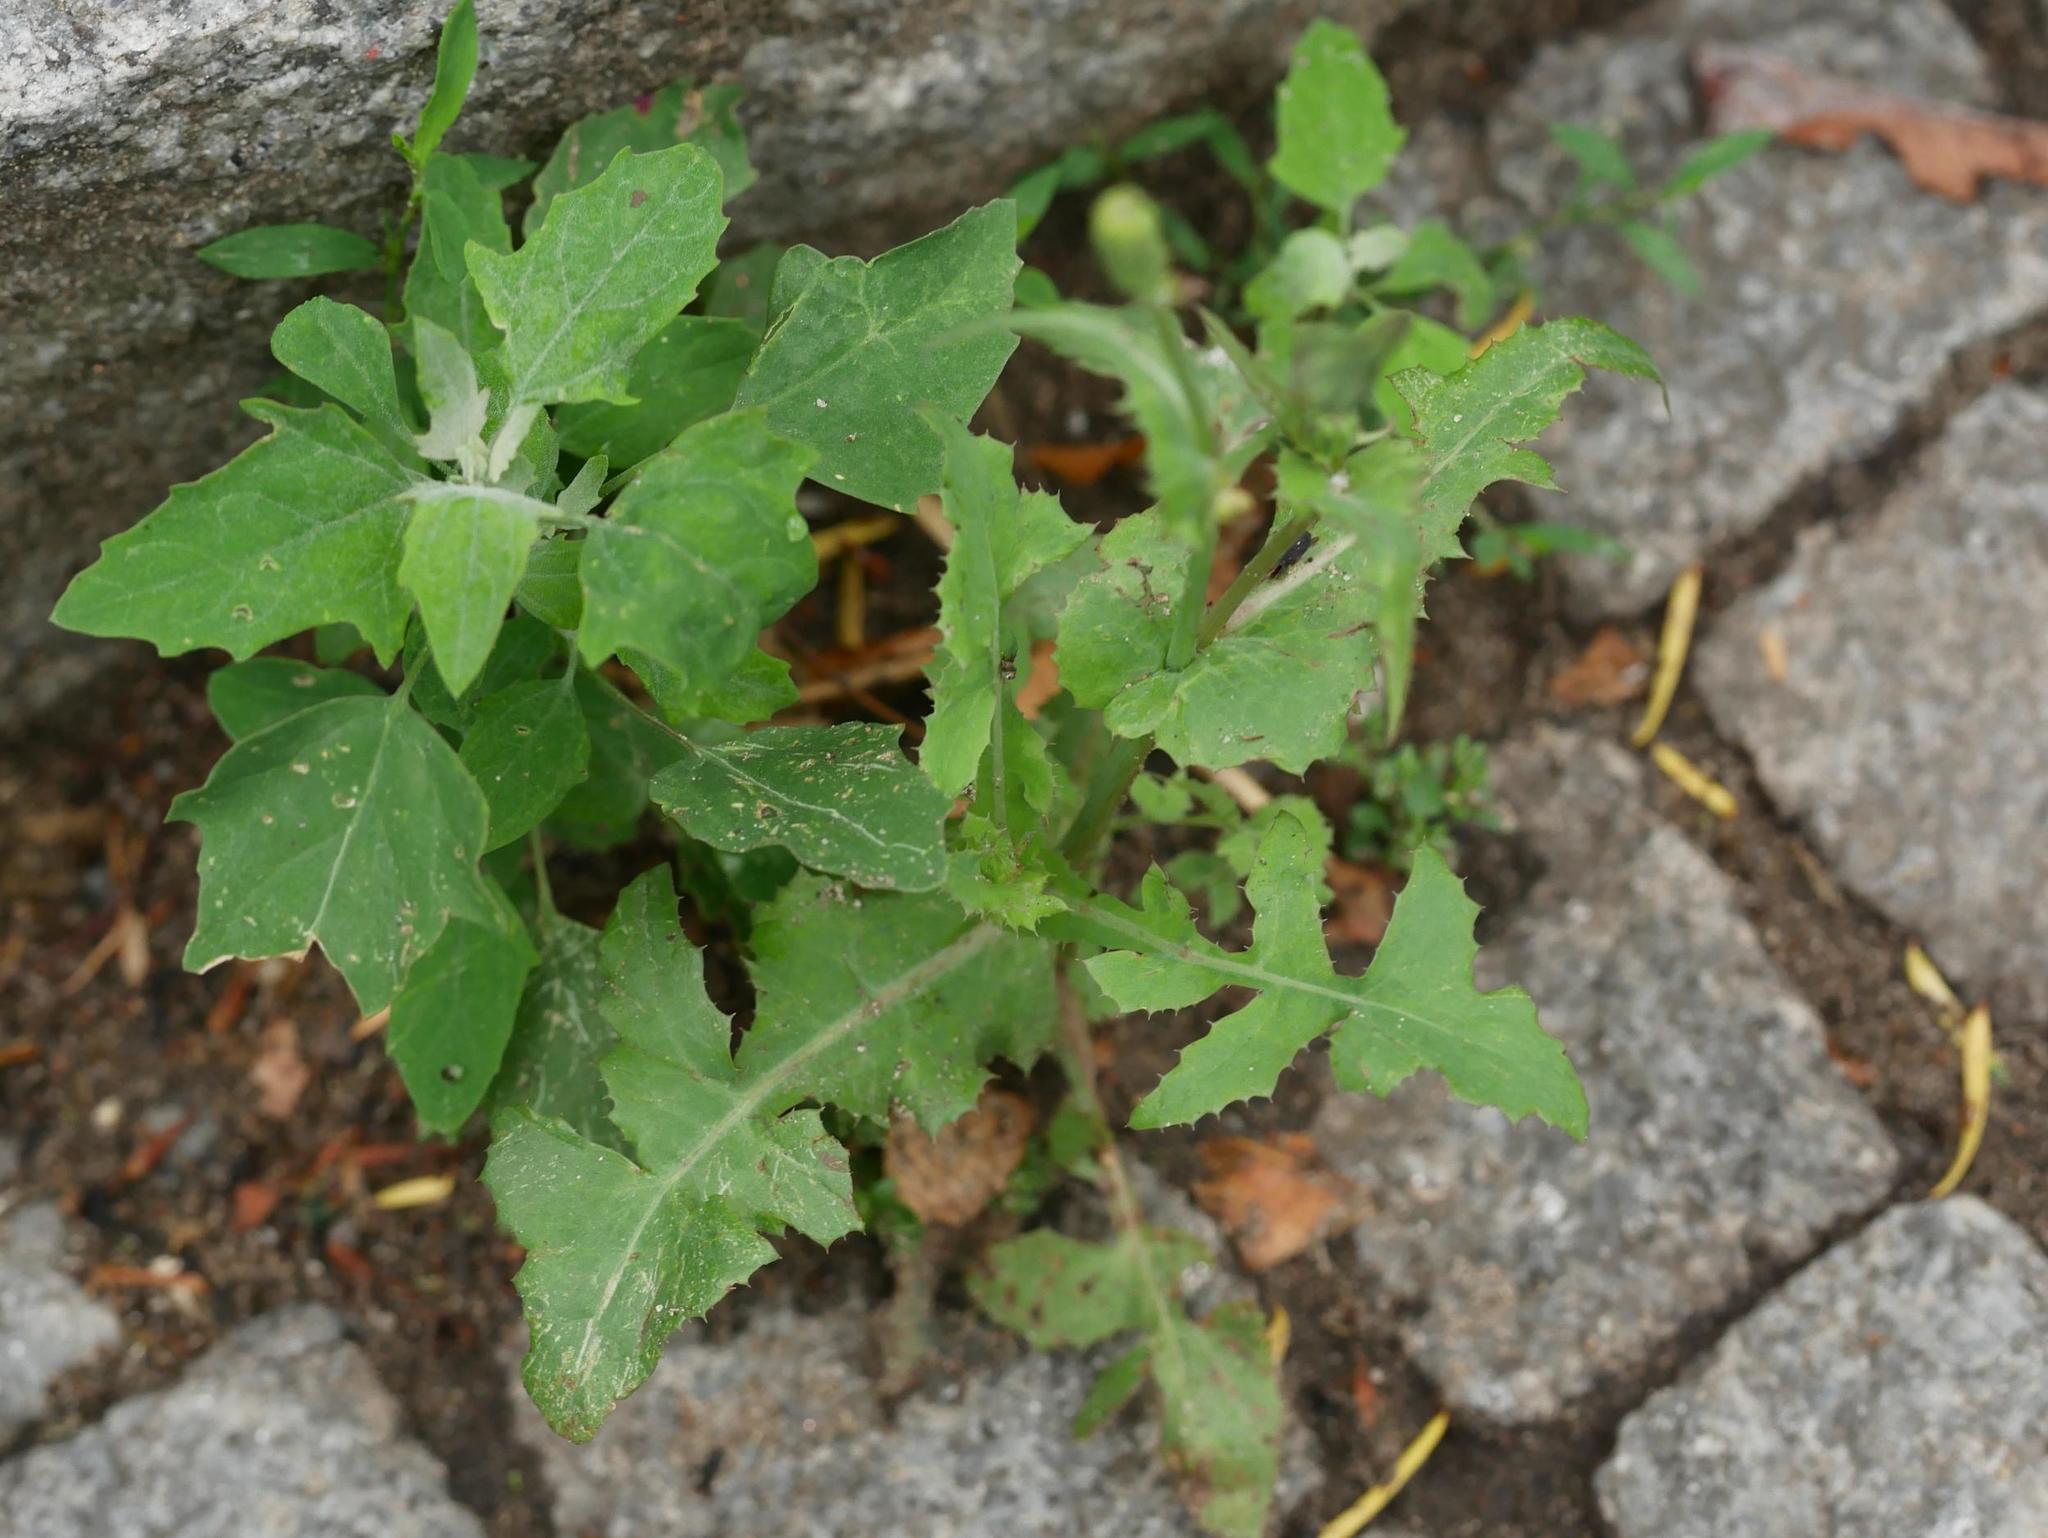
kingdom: Plantae
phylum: Tracheophyta
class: Magnoliopsida
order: Asterales
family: Asteraceae
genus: Sonchus
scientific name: Sonchus oleraceus
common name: Common sowthistle
